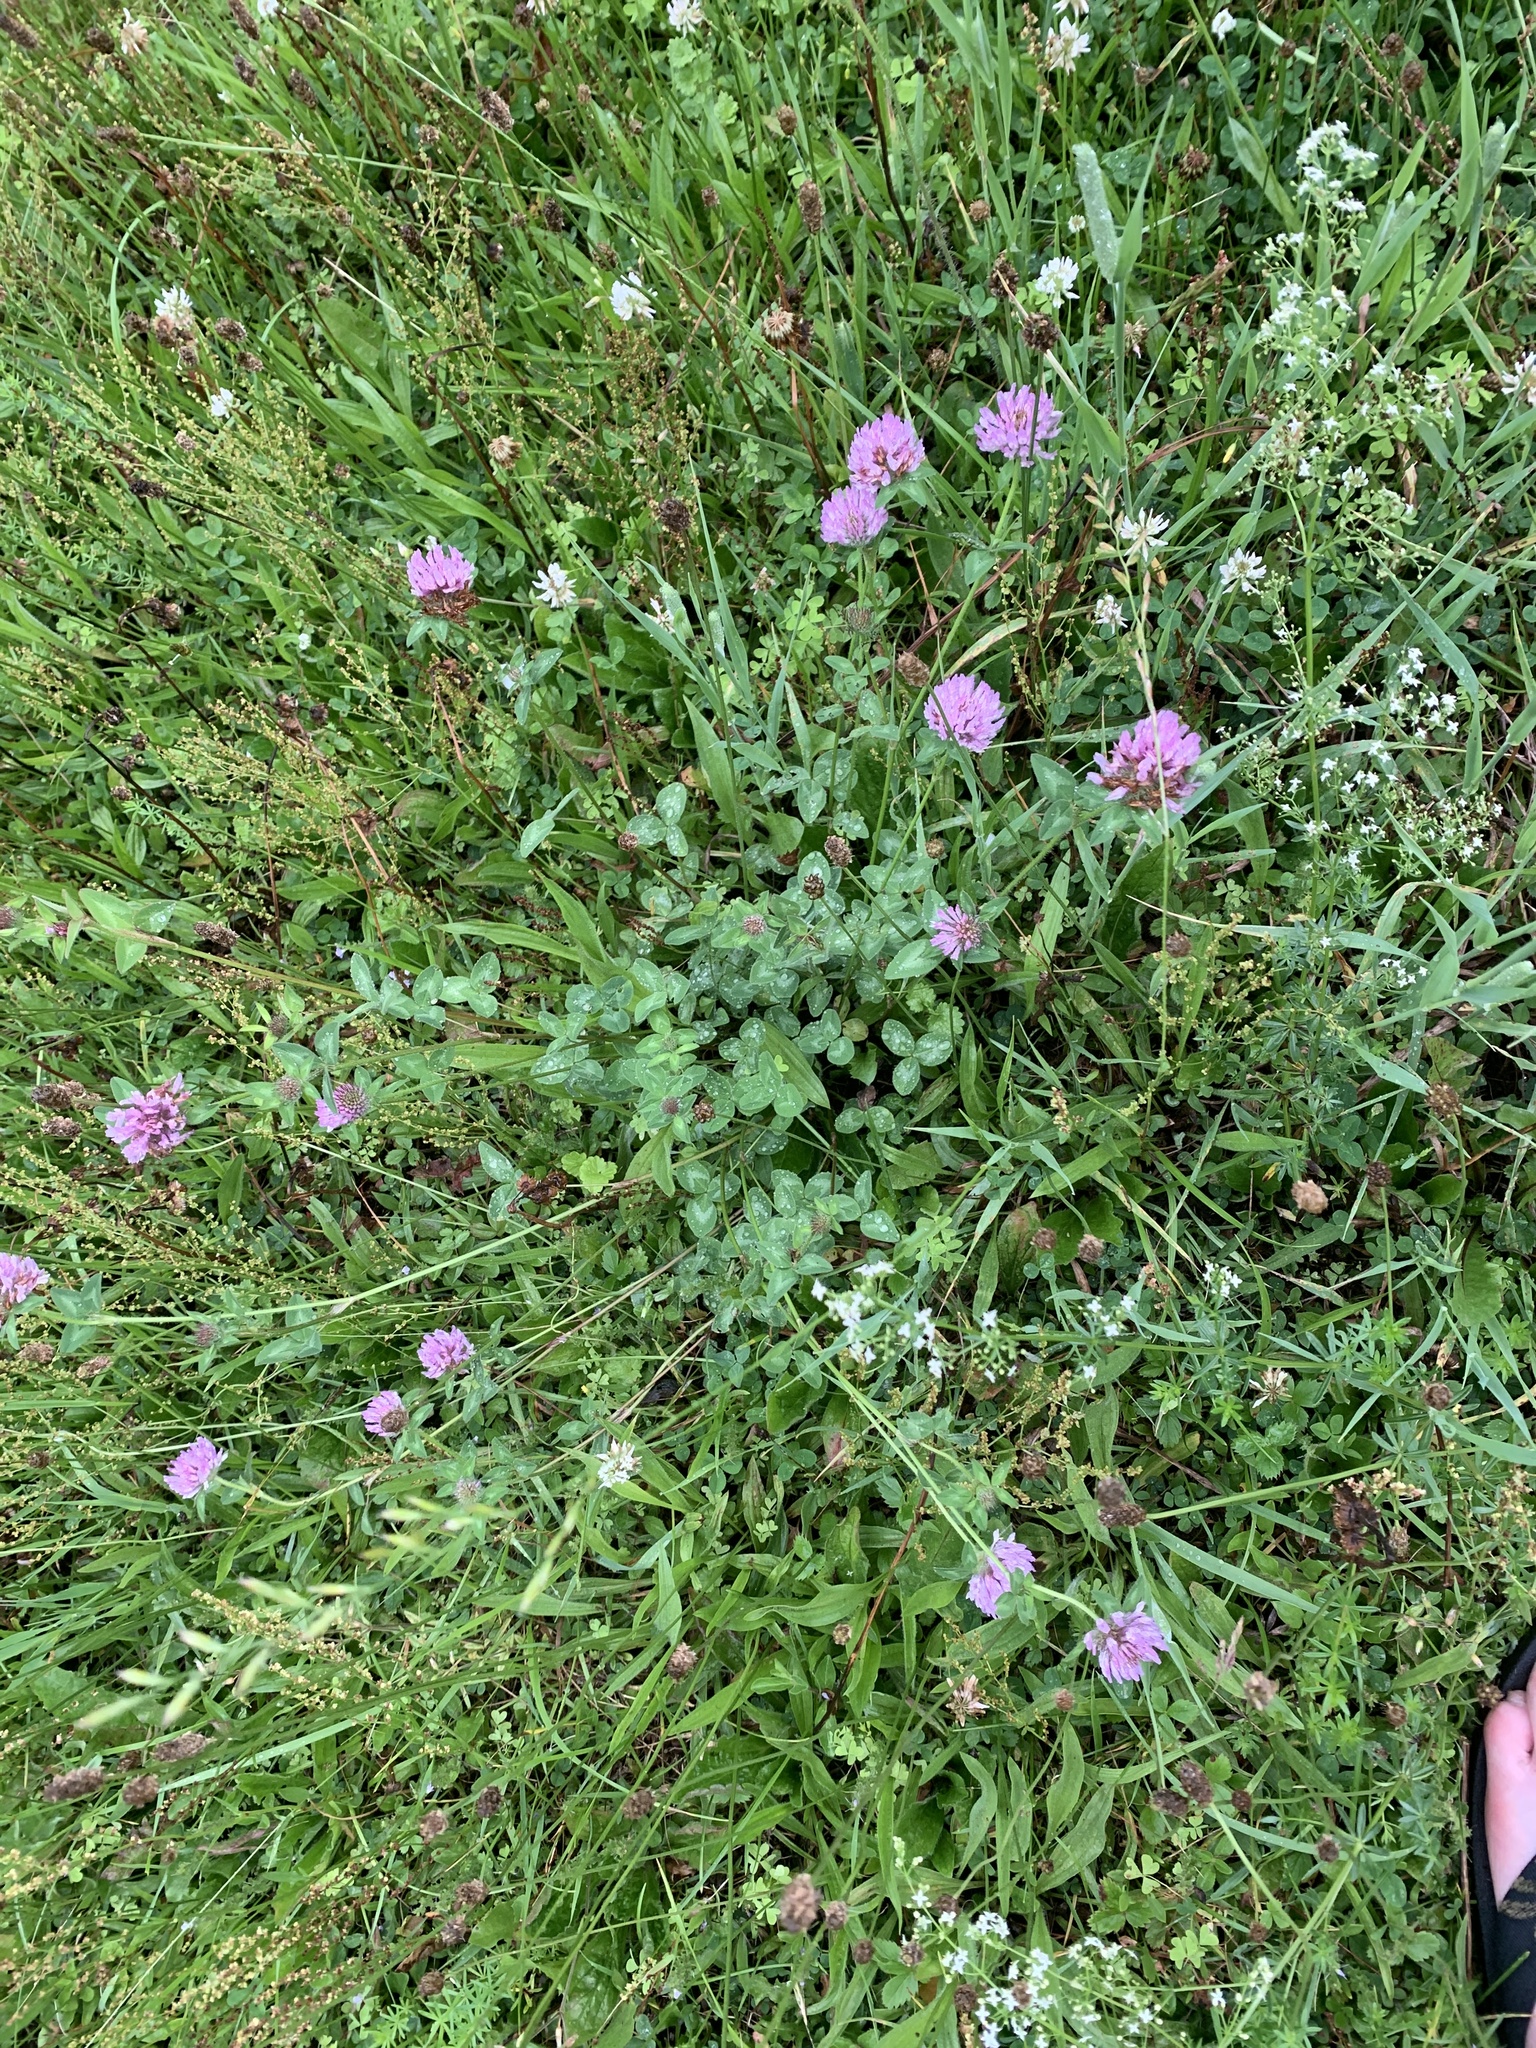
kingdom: Plantae
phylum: Tracheophyta
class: Magnoliopsida
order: Fabales
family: Fabaceae
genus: Trifolium
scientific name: Trifolium pratense
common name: Red clover
